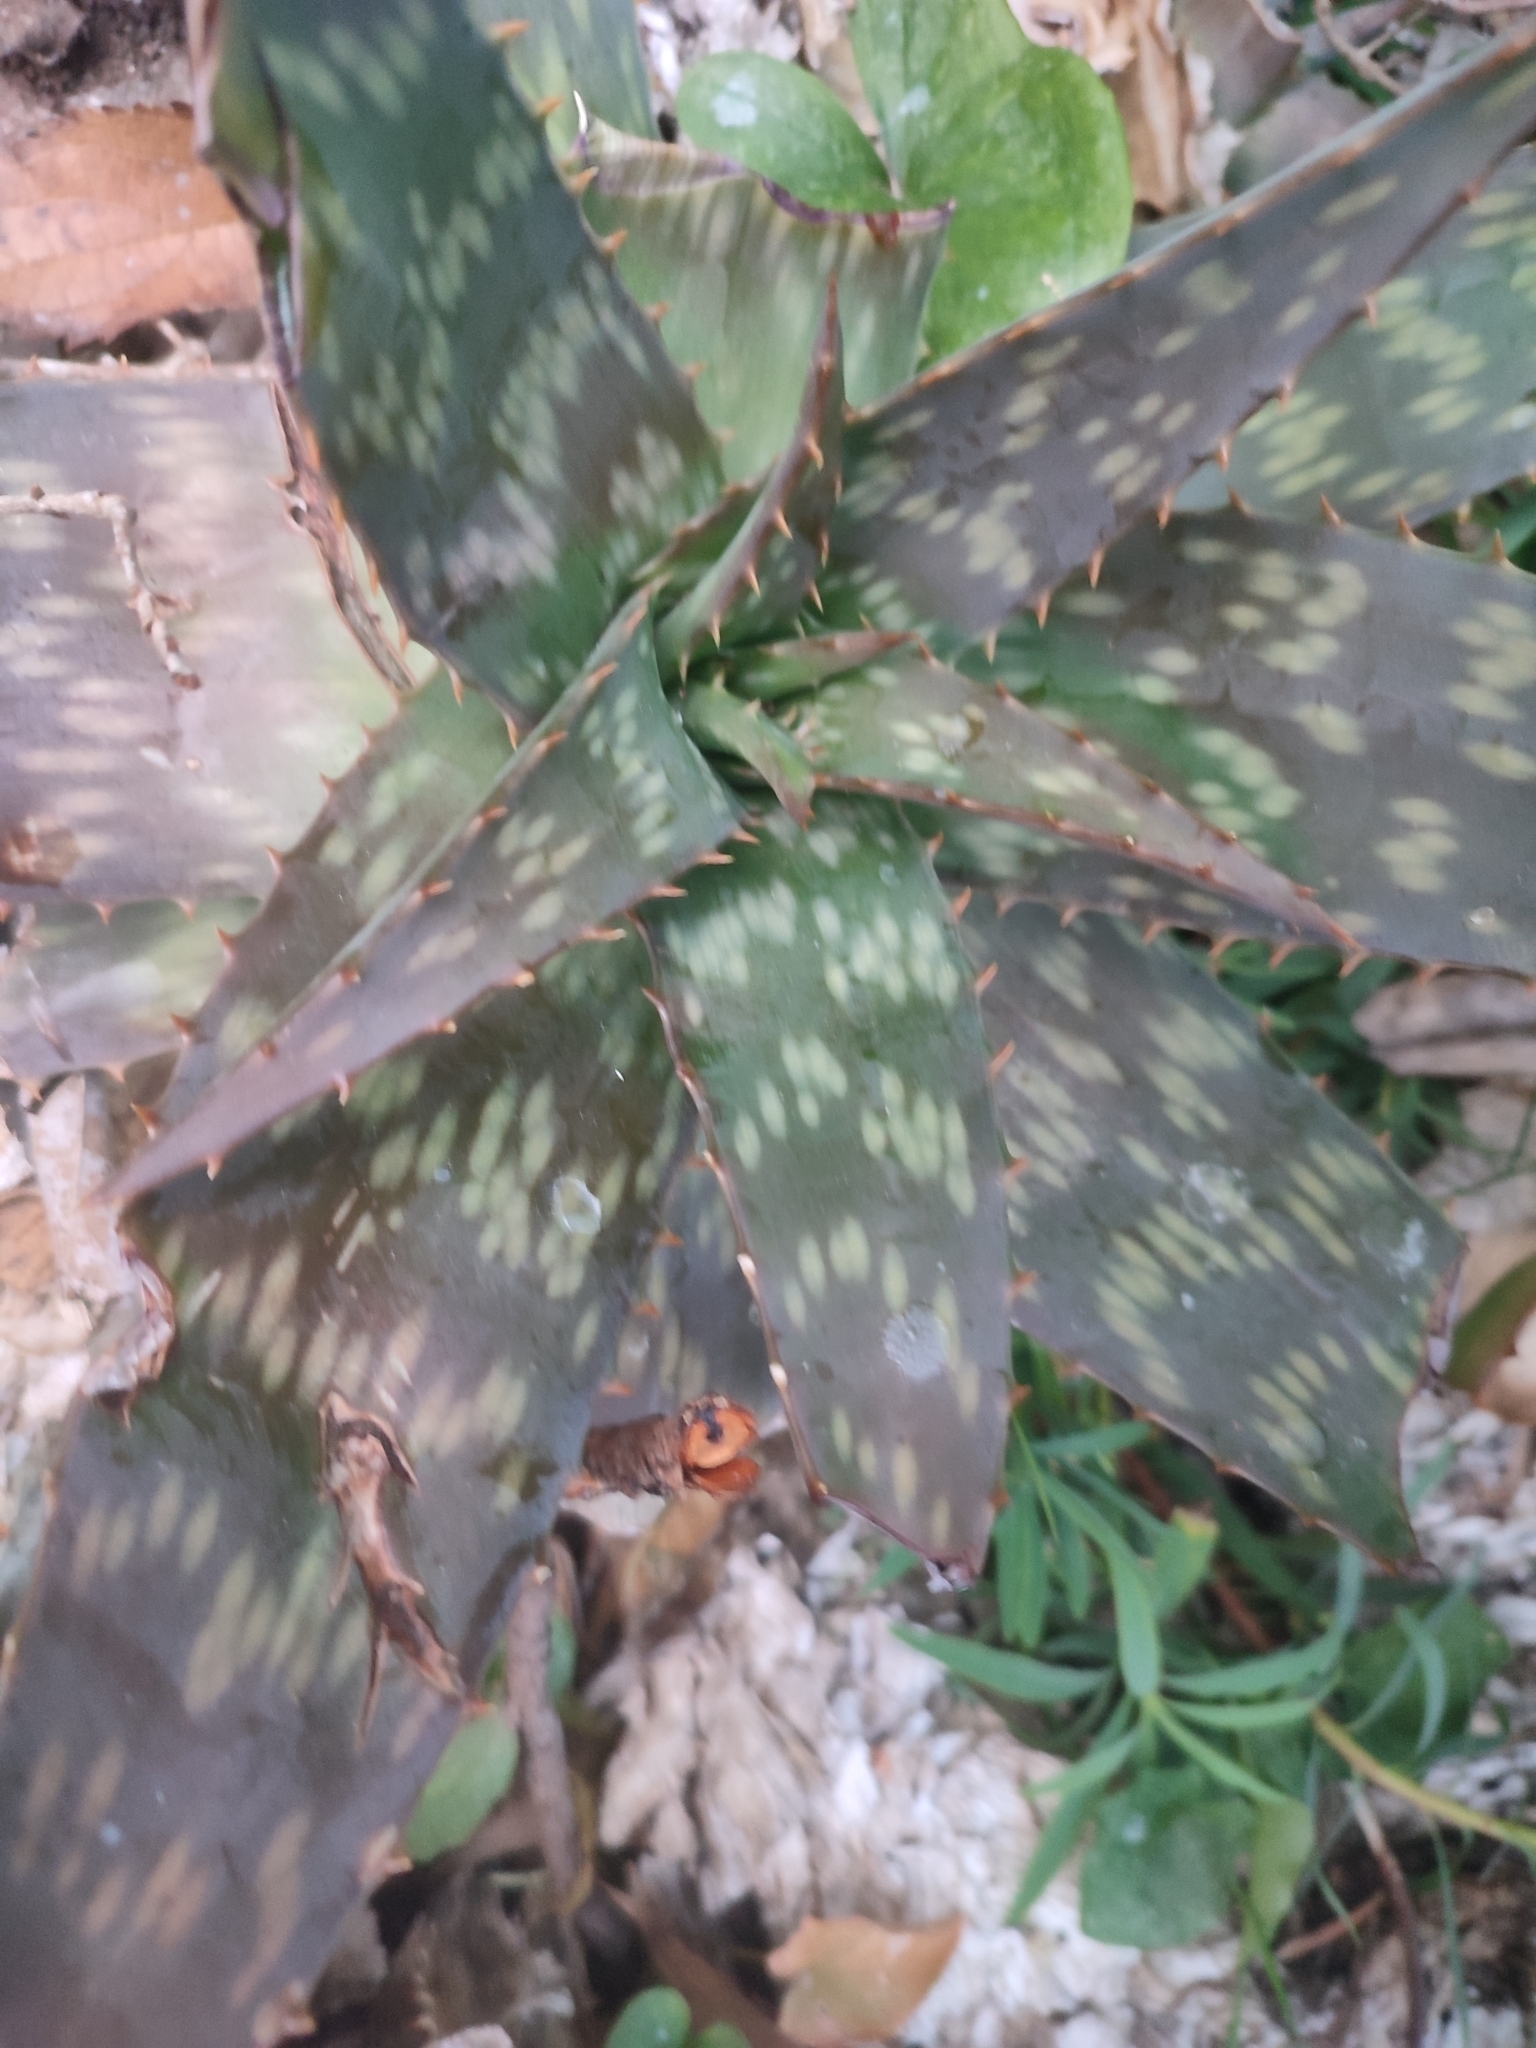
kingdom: Plantae
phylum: Tracheophyta
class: Liliopsida
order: Asparagales
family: Asphodelaceae
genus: Aloe
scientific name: Aloe maculata
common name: Broadleaf aloe
